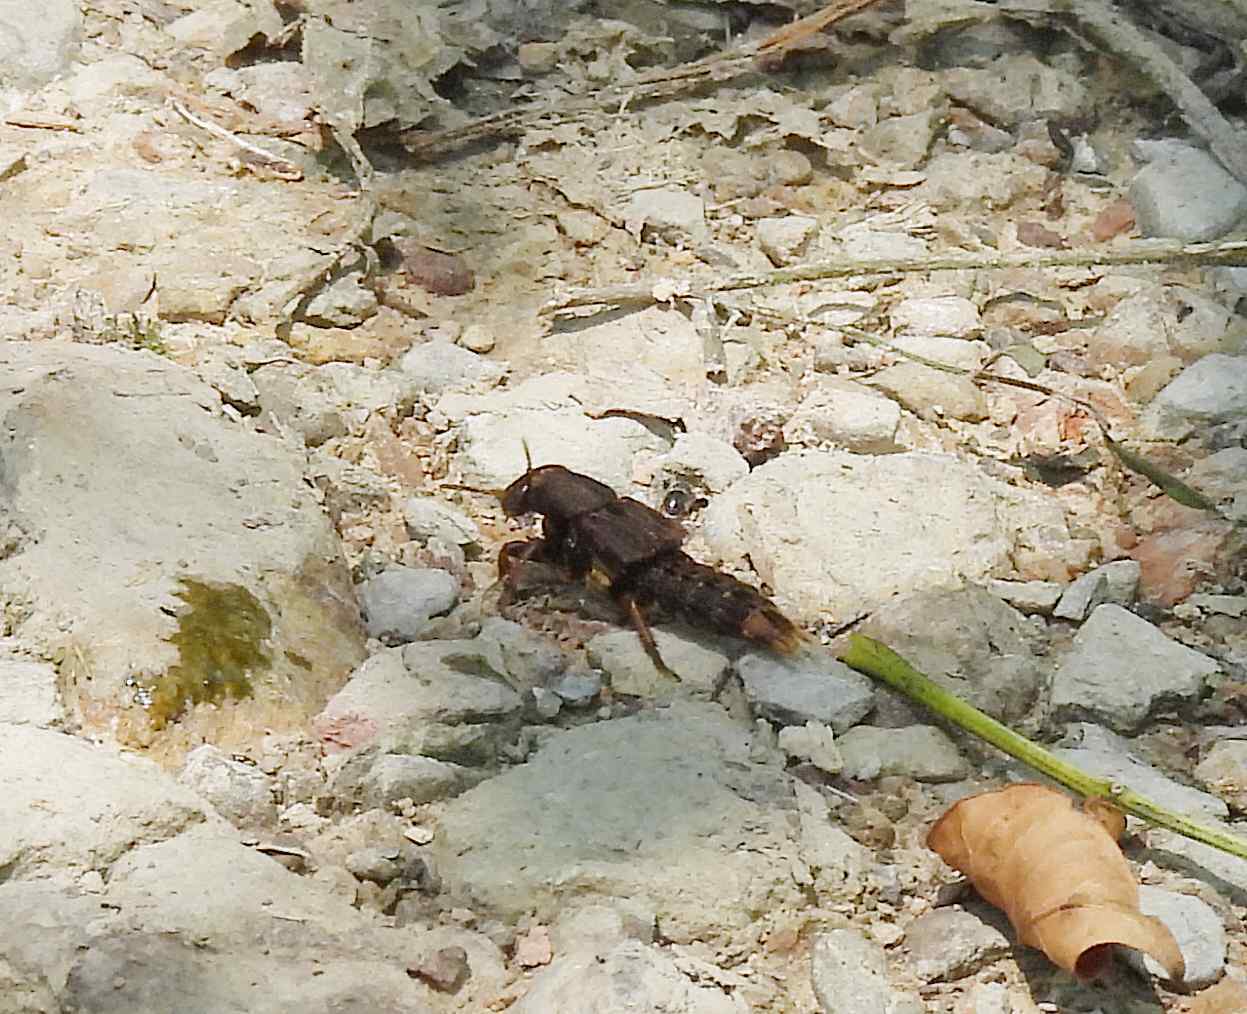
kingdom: Animalia
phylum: Arthropoda
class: Insecta
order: Coleoptera
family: Staphylinidae
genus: Platydracus
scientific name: Platydracus maculosus
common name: Brown rove beetle
